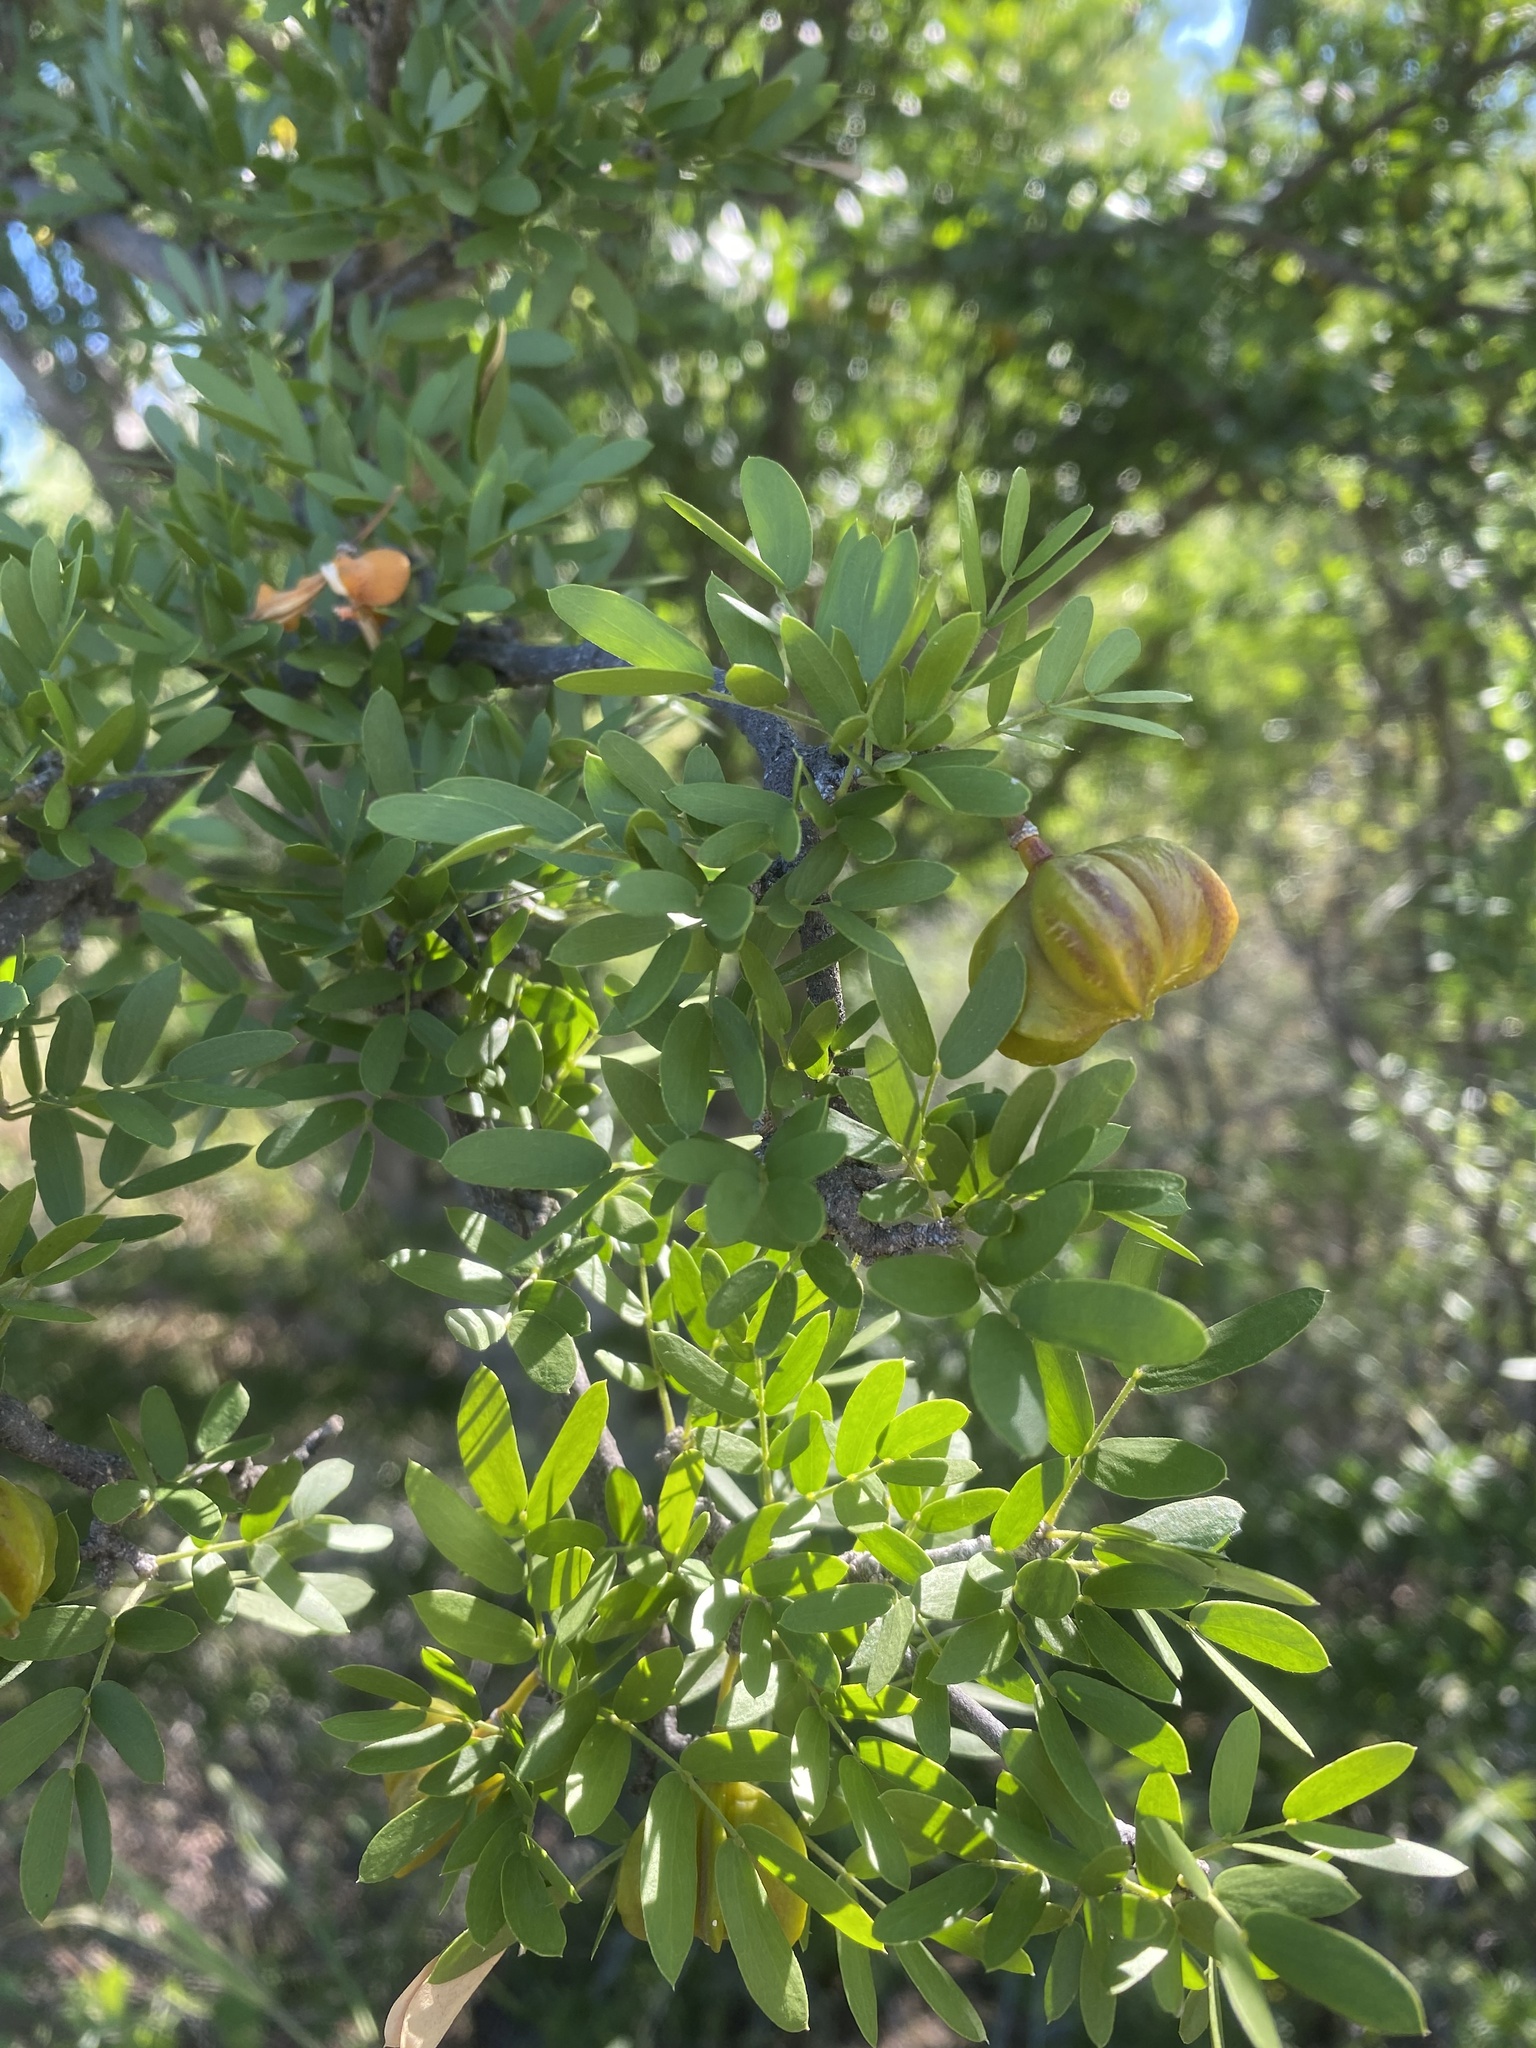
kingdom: Plantae
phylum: Tracheophyta
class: Magnoliopsida
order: Zygophyllales
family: Zygophyllaceae
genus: Guaiacum
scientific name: Guaiacum coulteri
